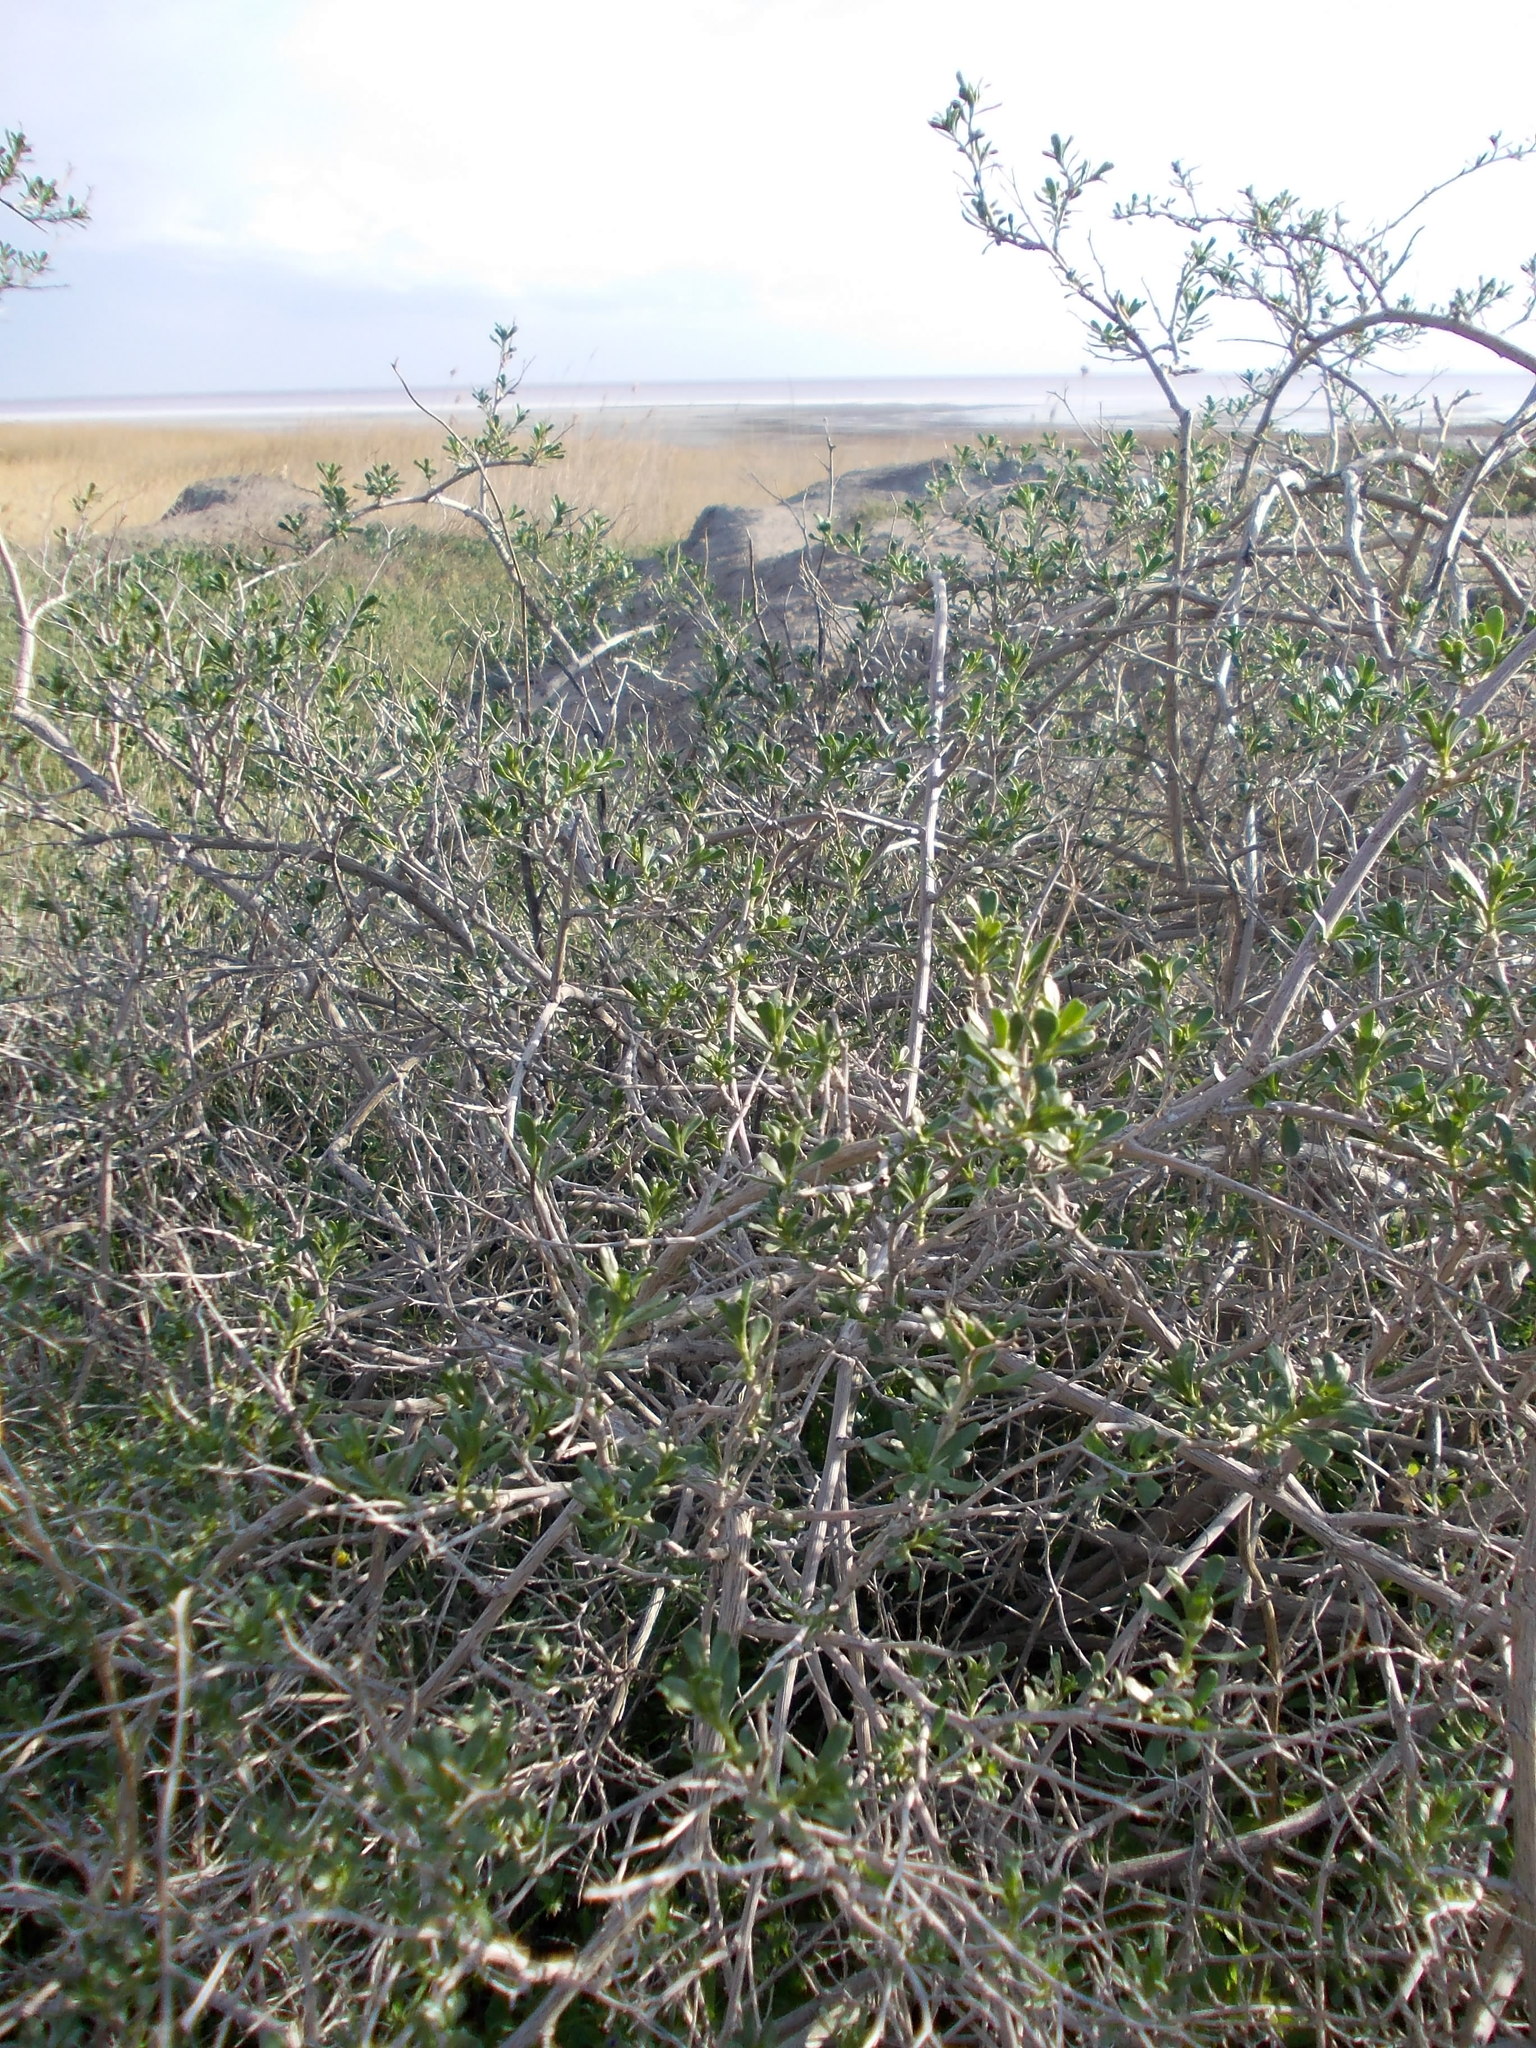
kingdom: Plantae
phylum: Tracheophyta
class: Magnoliopsida
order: Sapindales
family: Nitrariaceae
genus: Nitraria
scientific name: Nitraria schoberi
